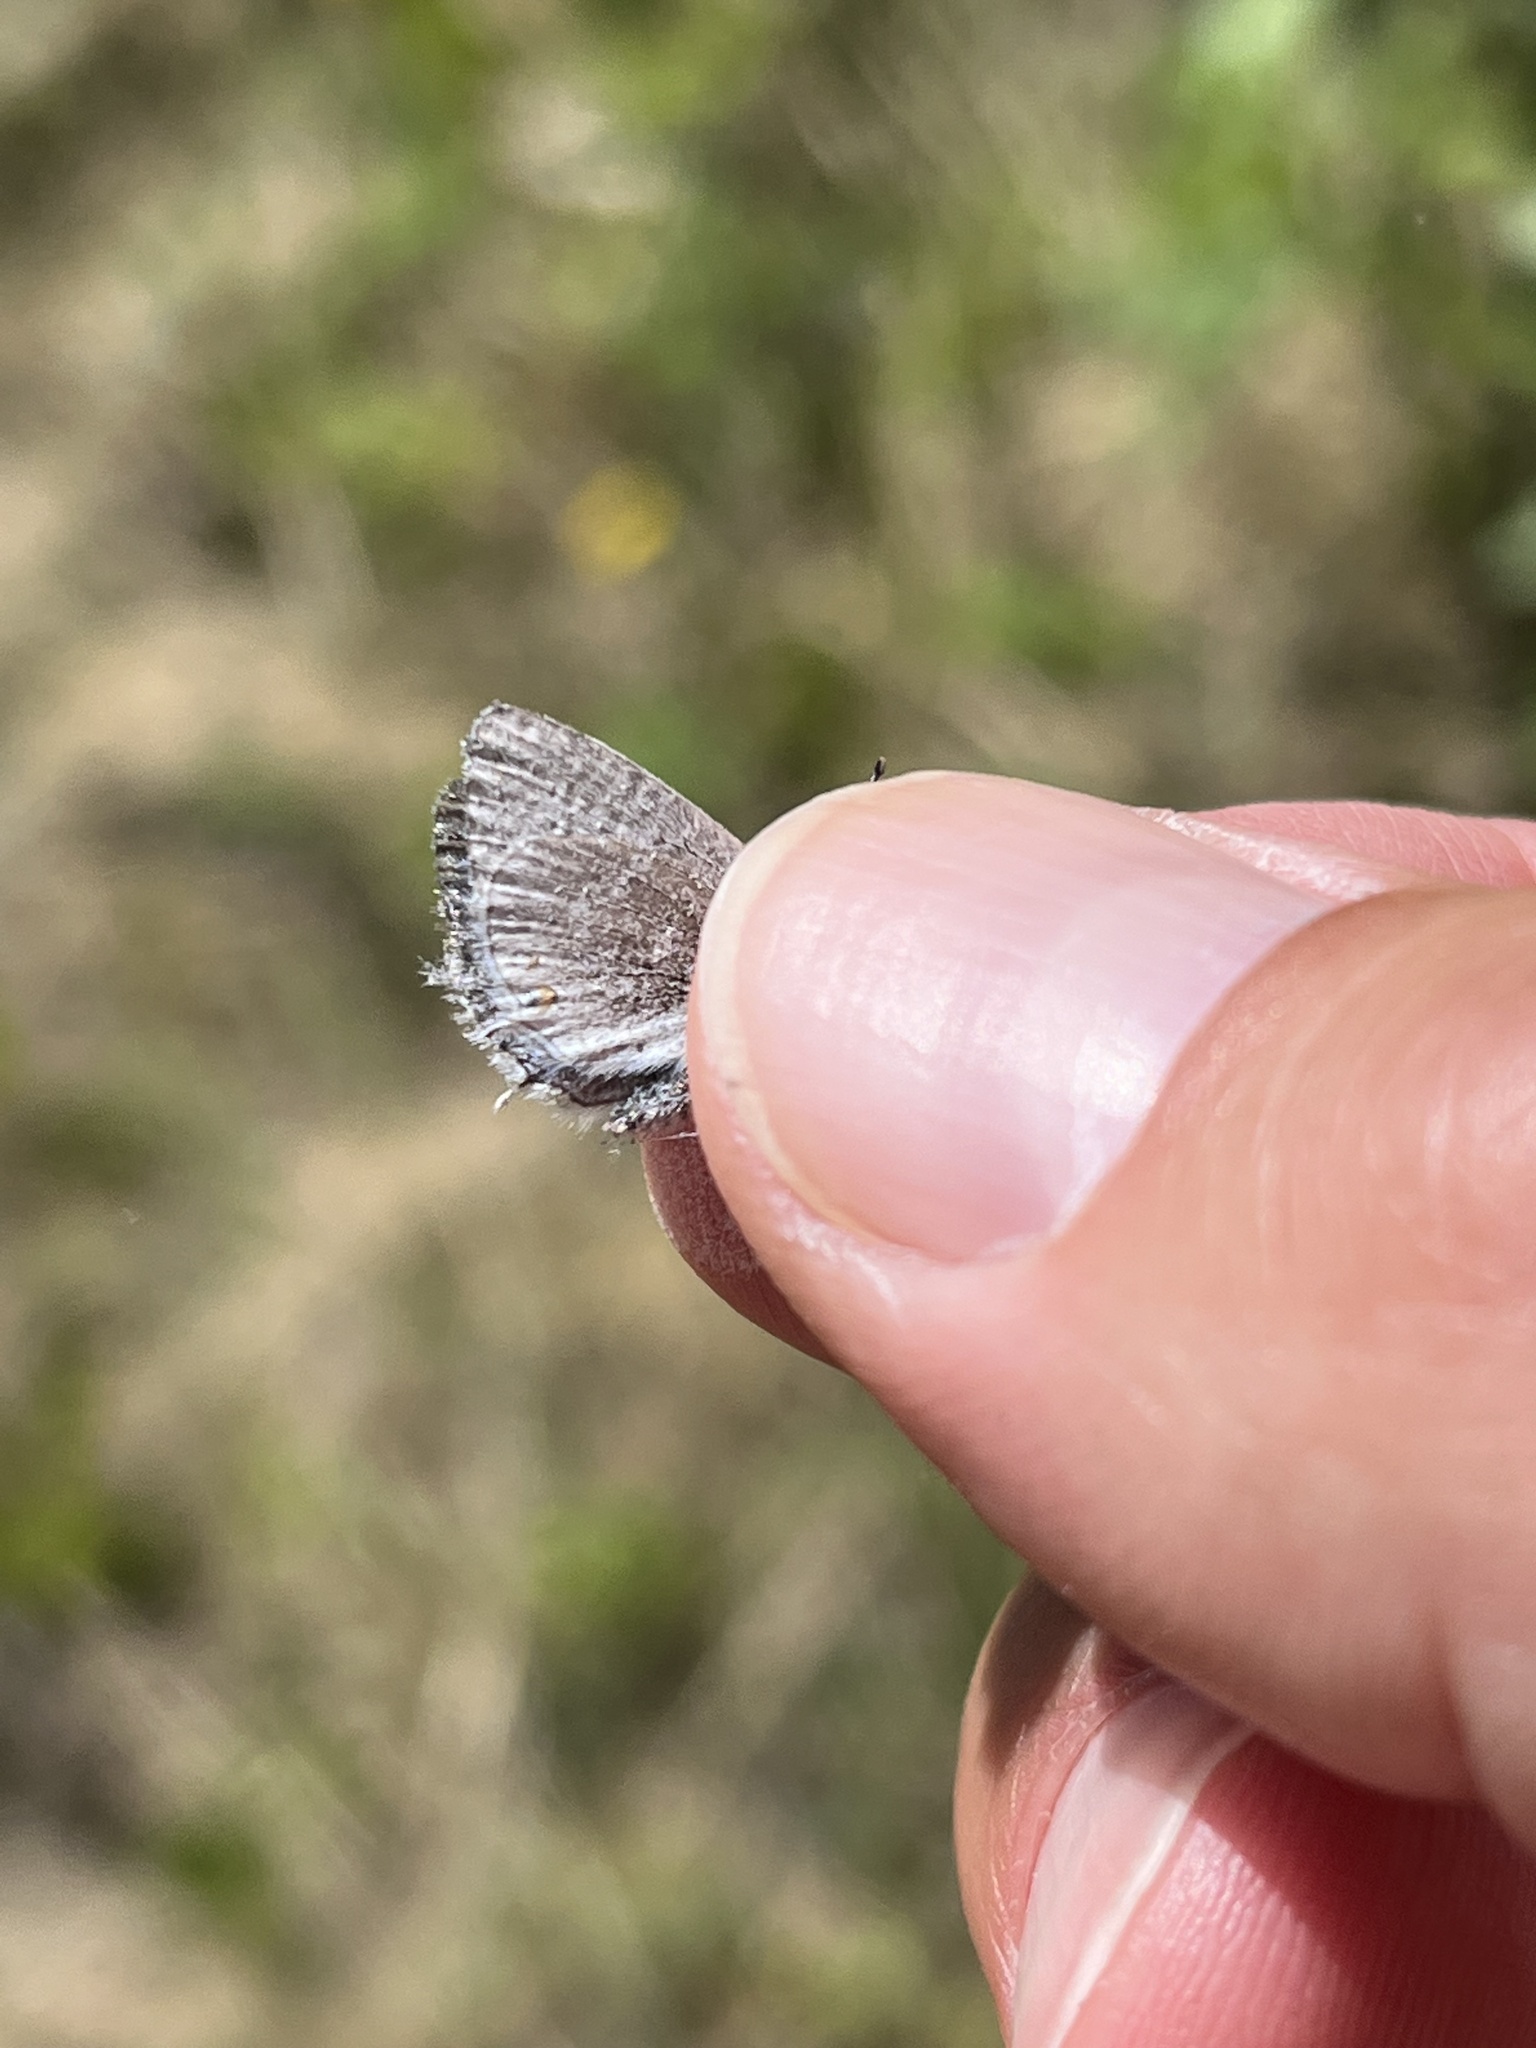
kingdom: Animalia
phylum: Arthropoda
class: Insecta
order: Lepidoptera
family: Lycaenidae
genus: Elkalyce
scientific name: Elkalyce amyntula
